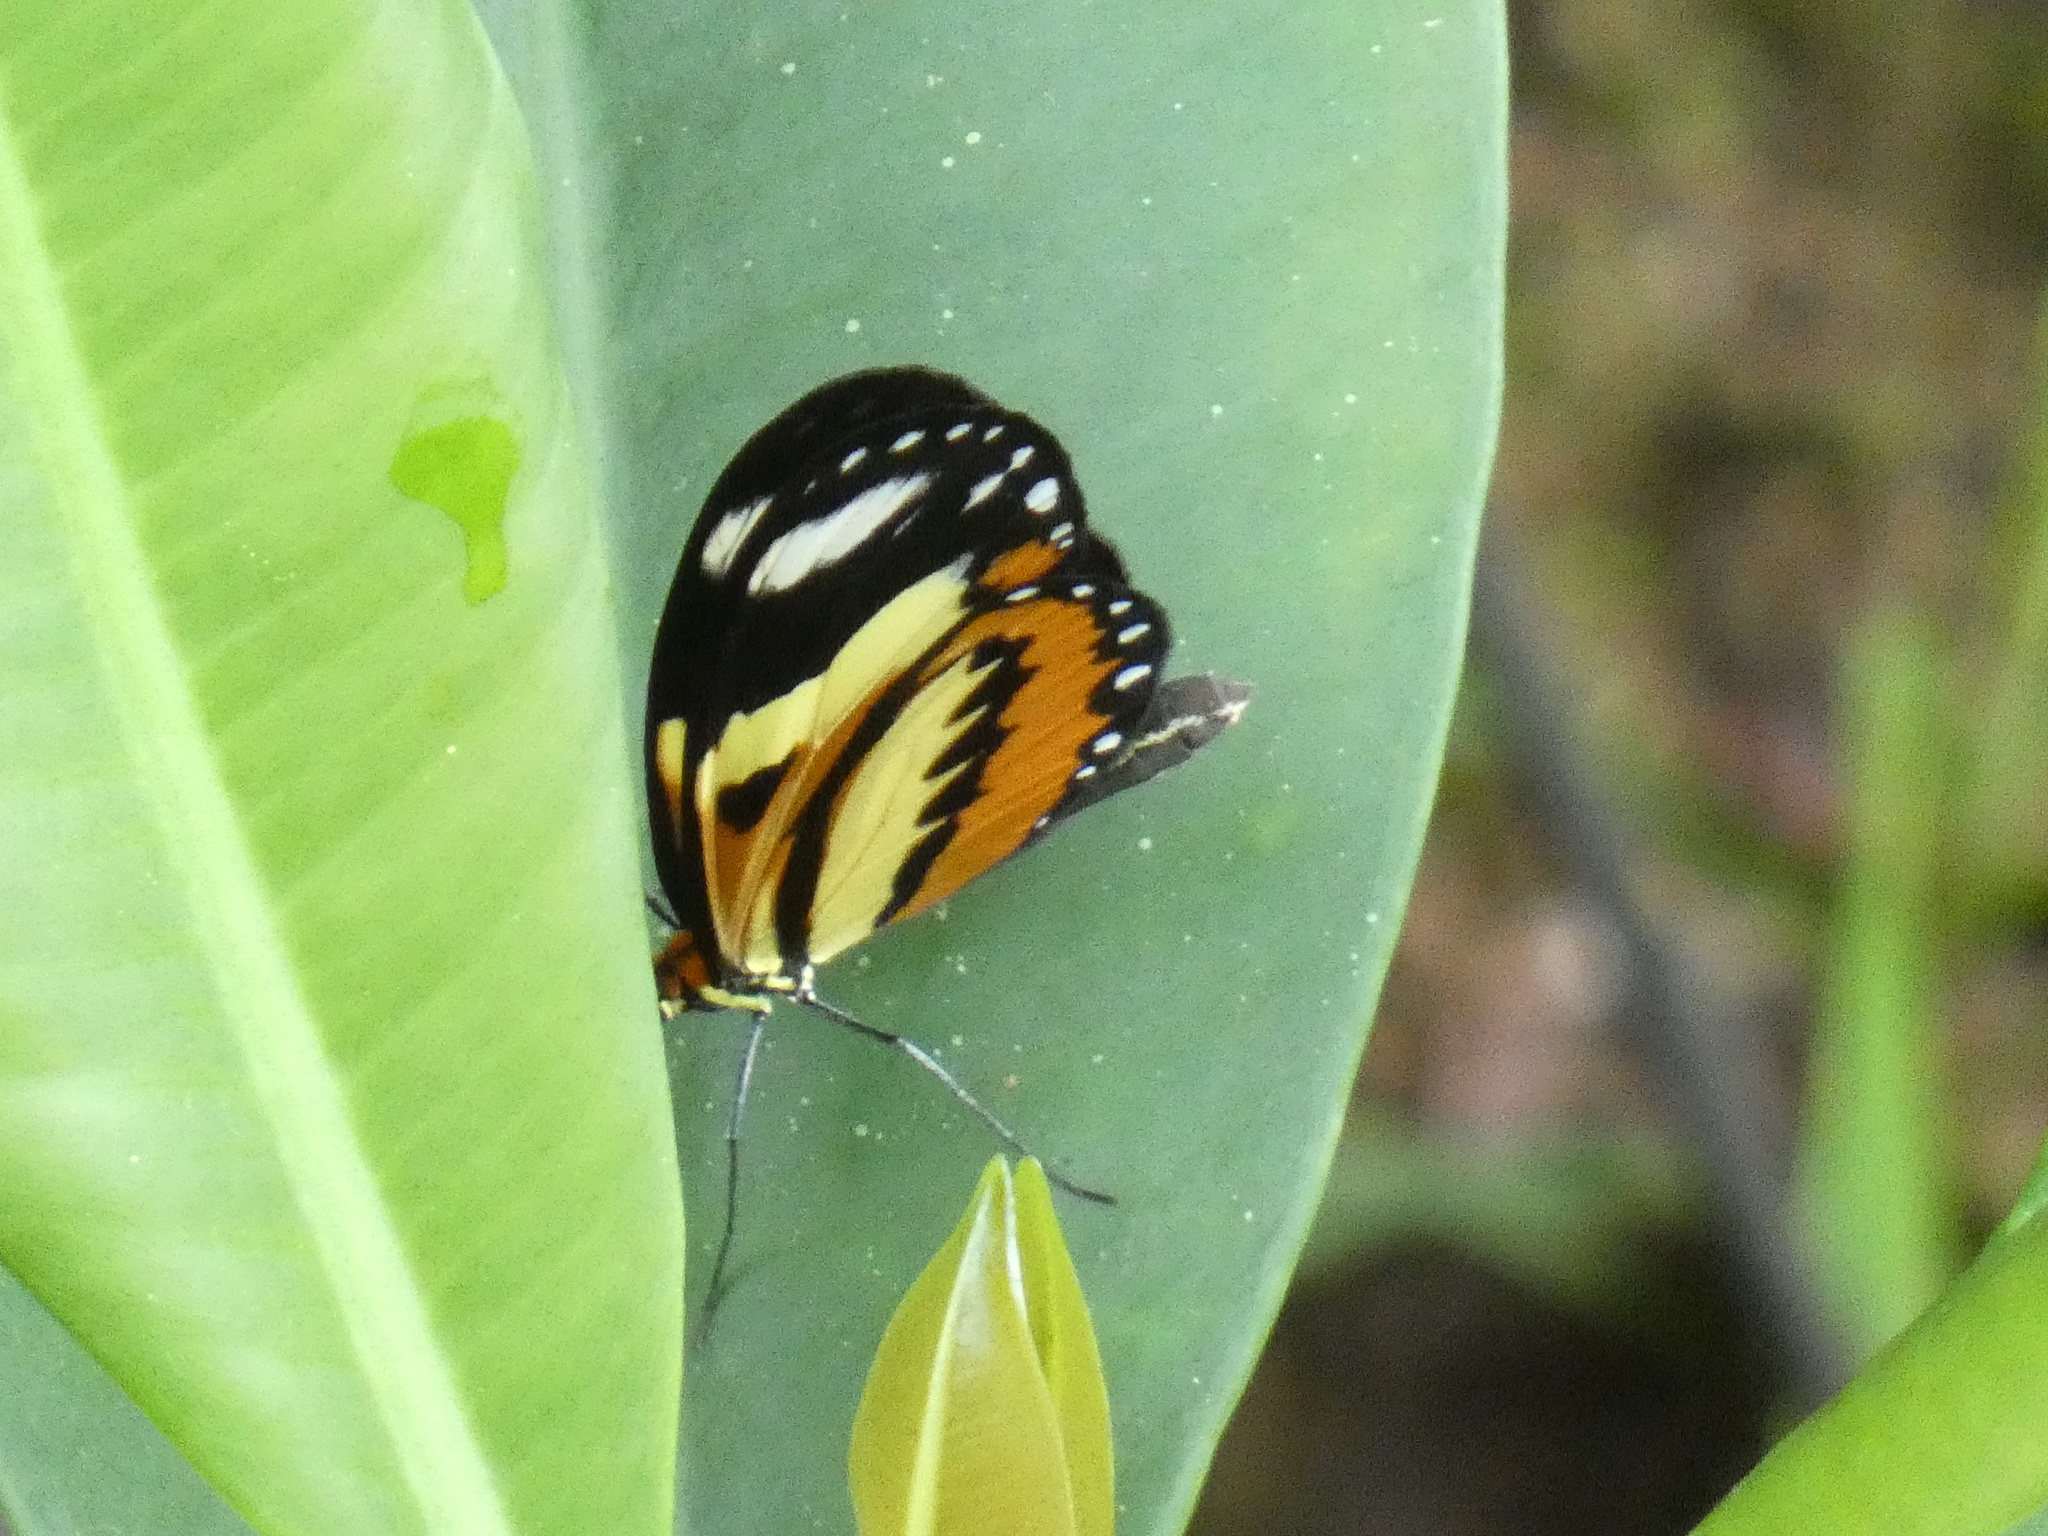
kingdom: Animalia
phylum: Arthropoda
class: Insecta
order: Lepidoptera
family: Nymphalidae
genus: Mechanitis
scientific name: Mechanitis lysimnia
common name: Lysimnia tigerwing
